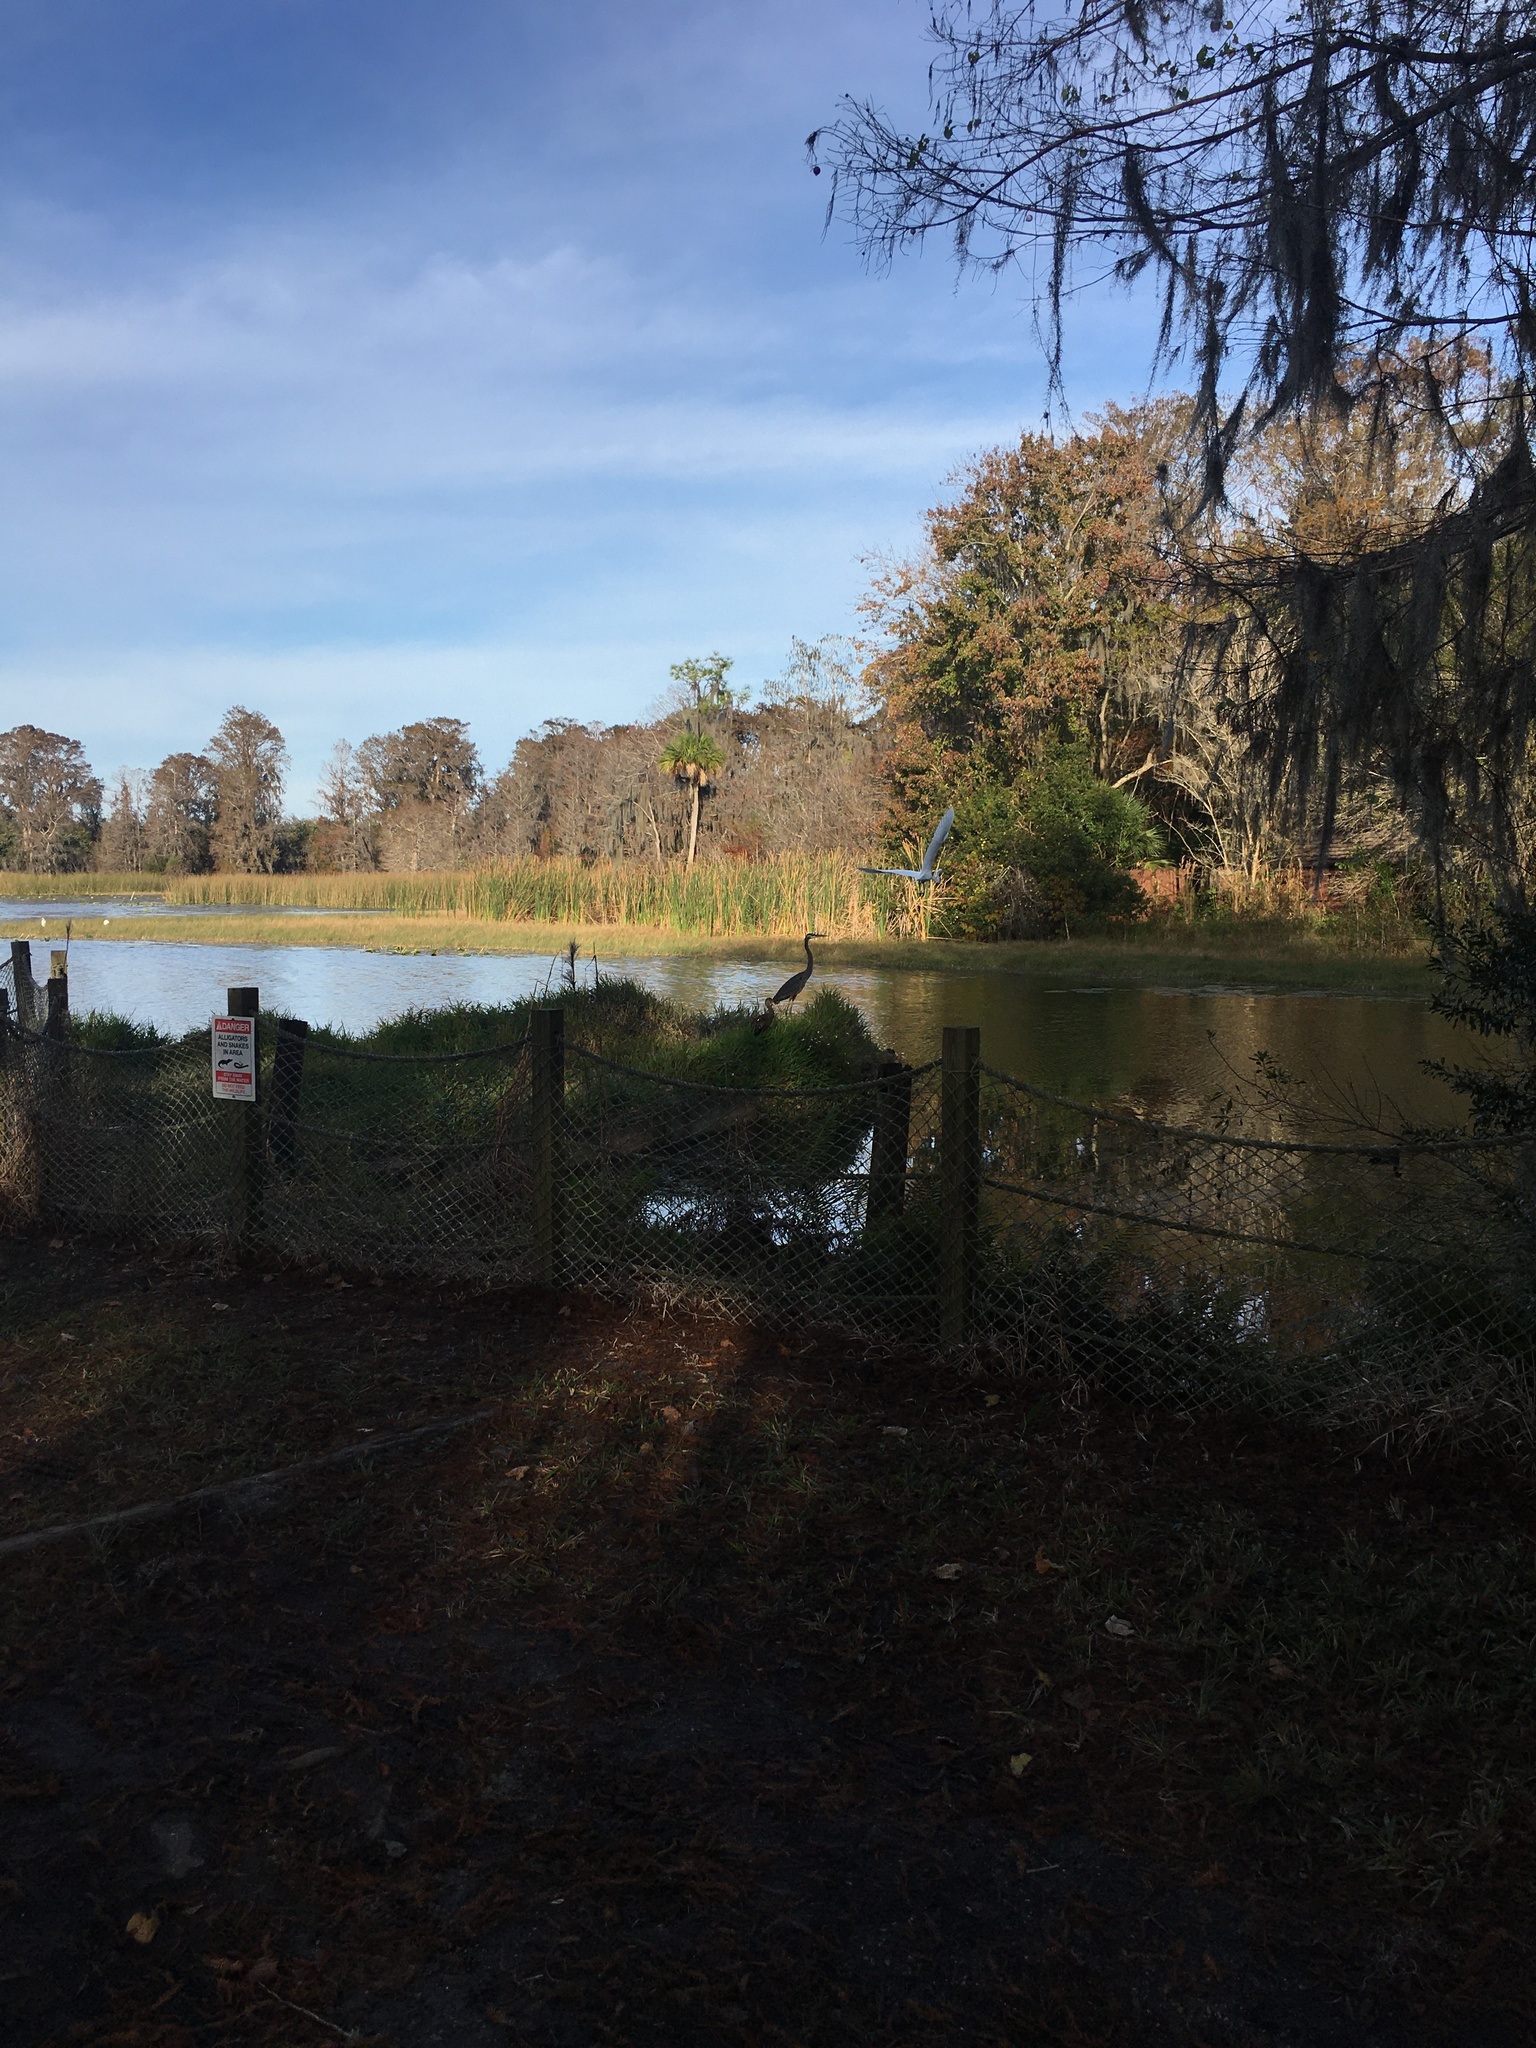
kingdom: Animalia
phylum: Chordata
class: Aves
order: Pelecaniformes
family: Ardeidae
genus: Ardea
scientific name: Ardea alba
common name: Great egret
